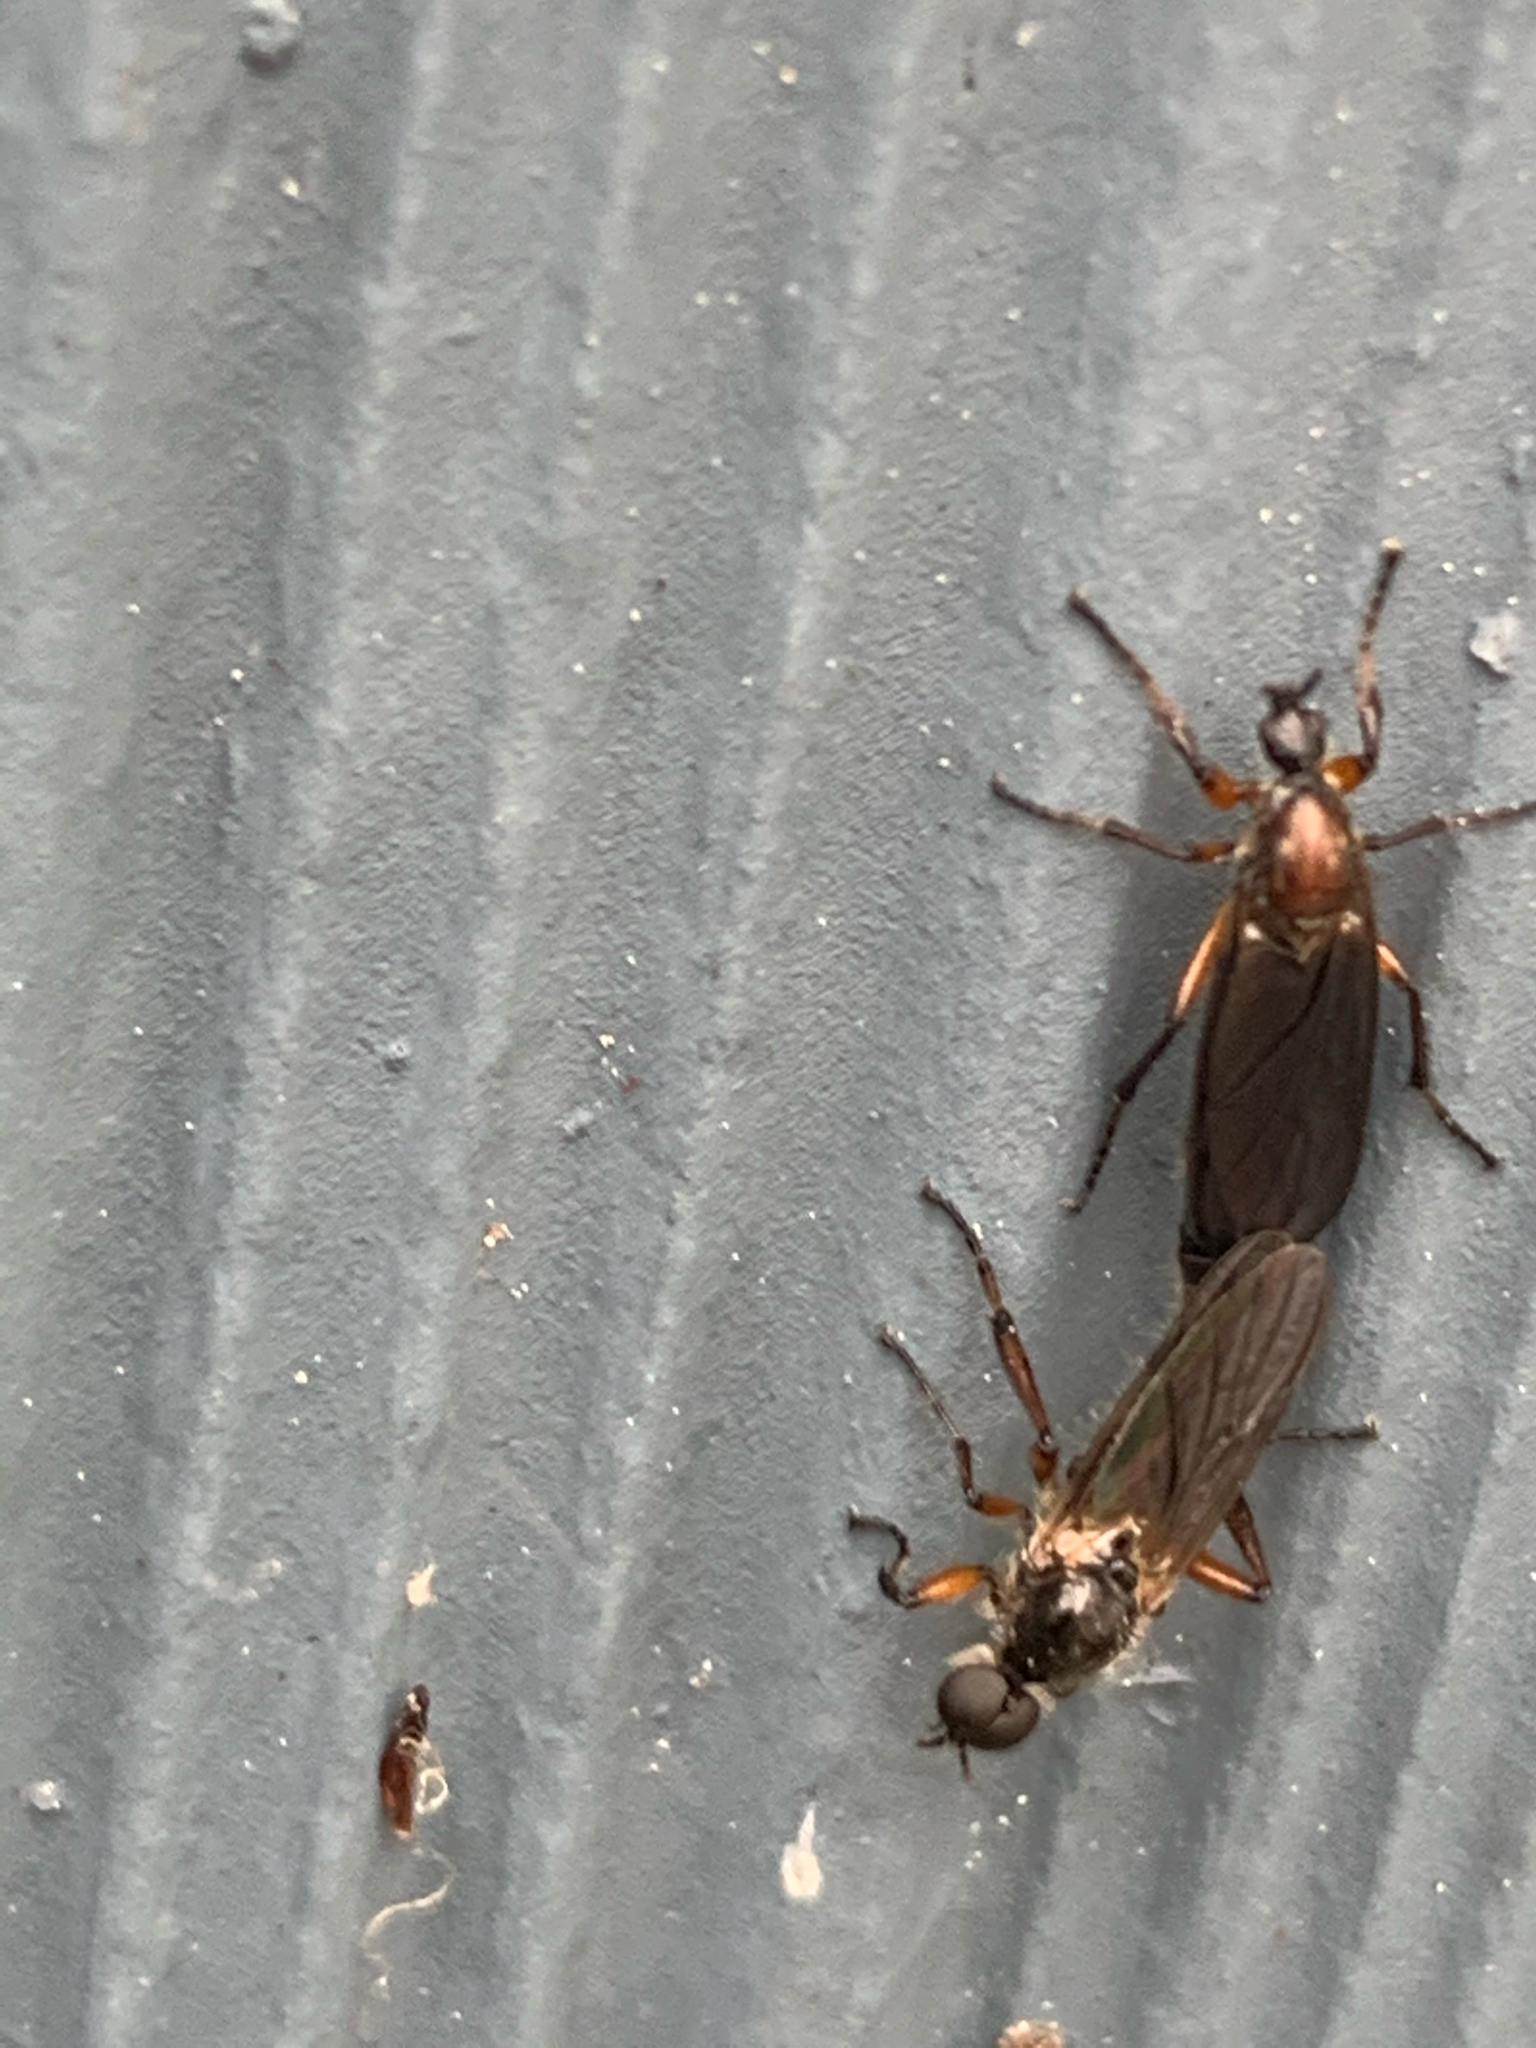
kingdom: Animalia
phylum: Arthropoda
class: Insecta
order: Diptera
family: Bibionidae
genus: Bibio
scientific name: Bibio articulatus
